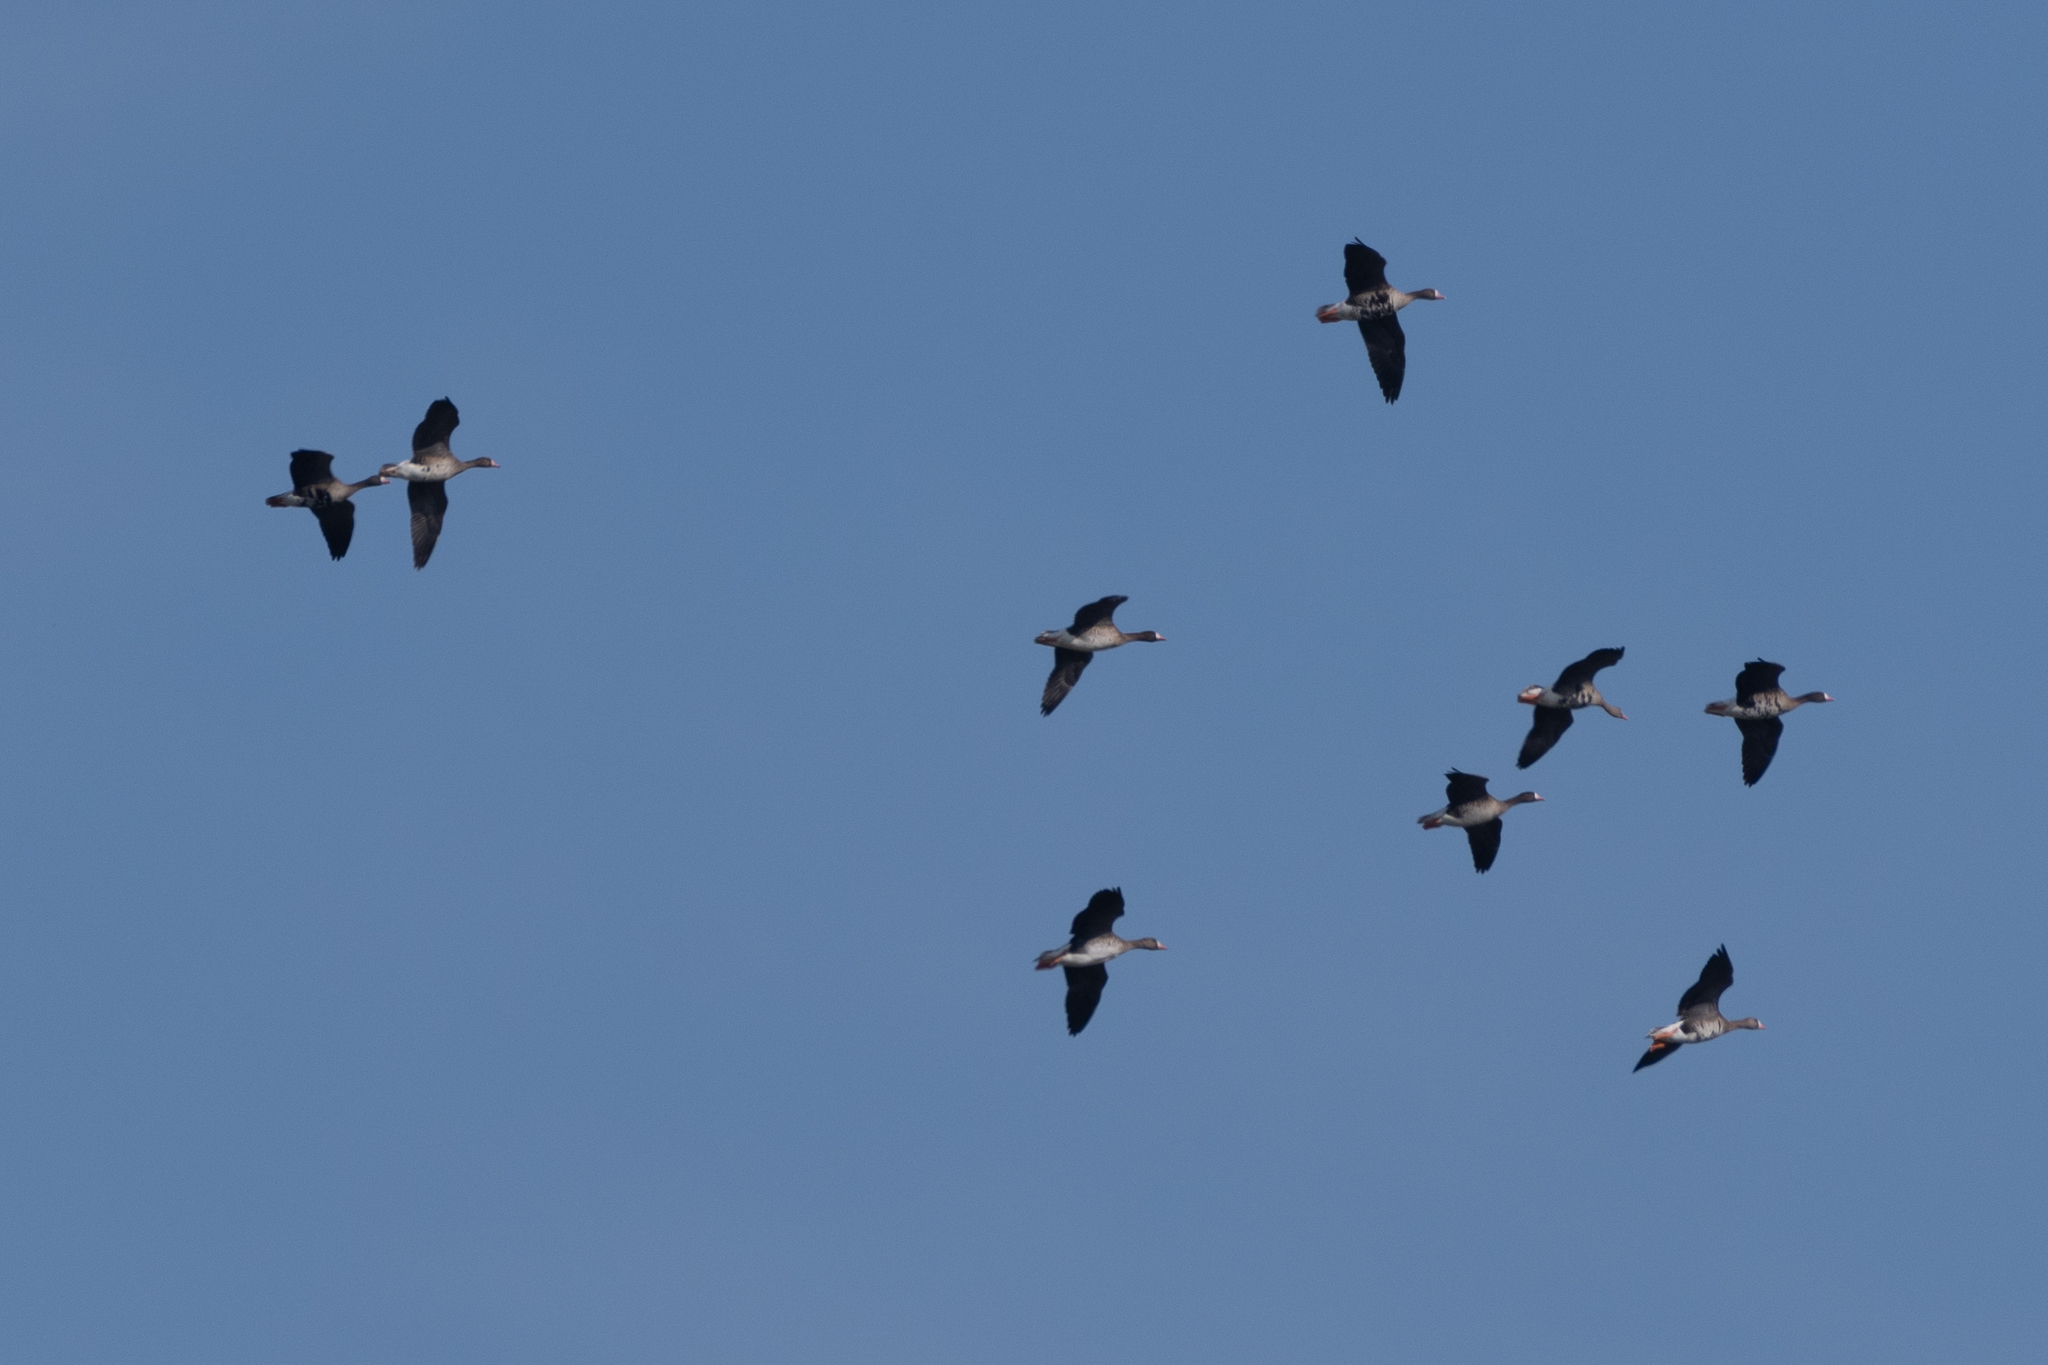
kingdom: Animalia
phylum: Chordata
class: Aves
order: Anseriformes
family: Anatidae
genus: Anser
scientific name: Anser albifrons
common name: Greater white-fronted goose
